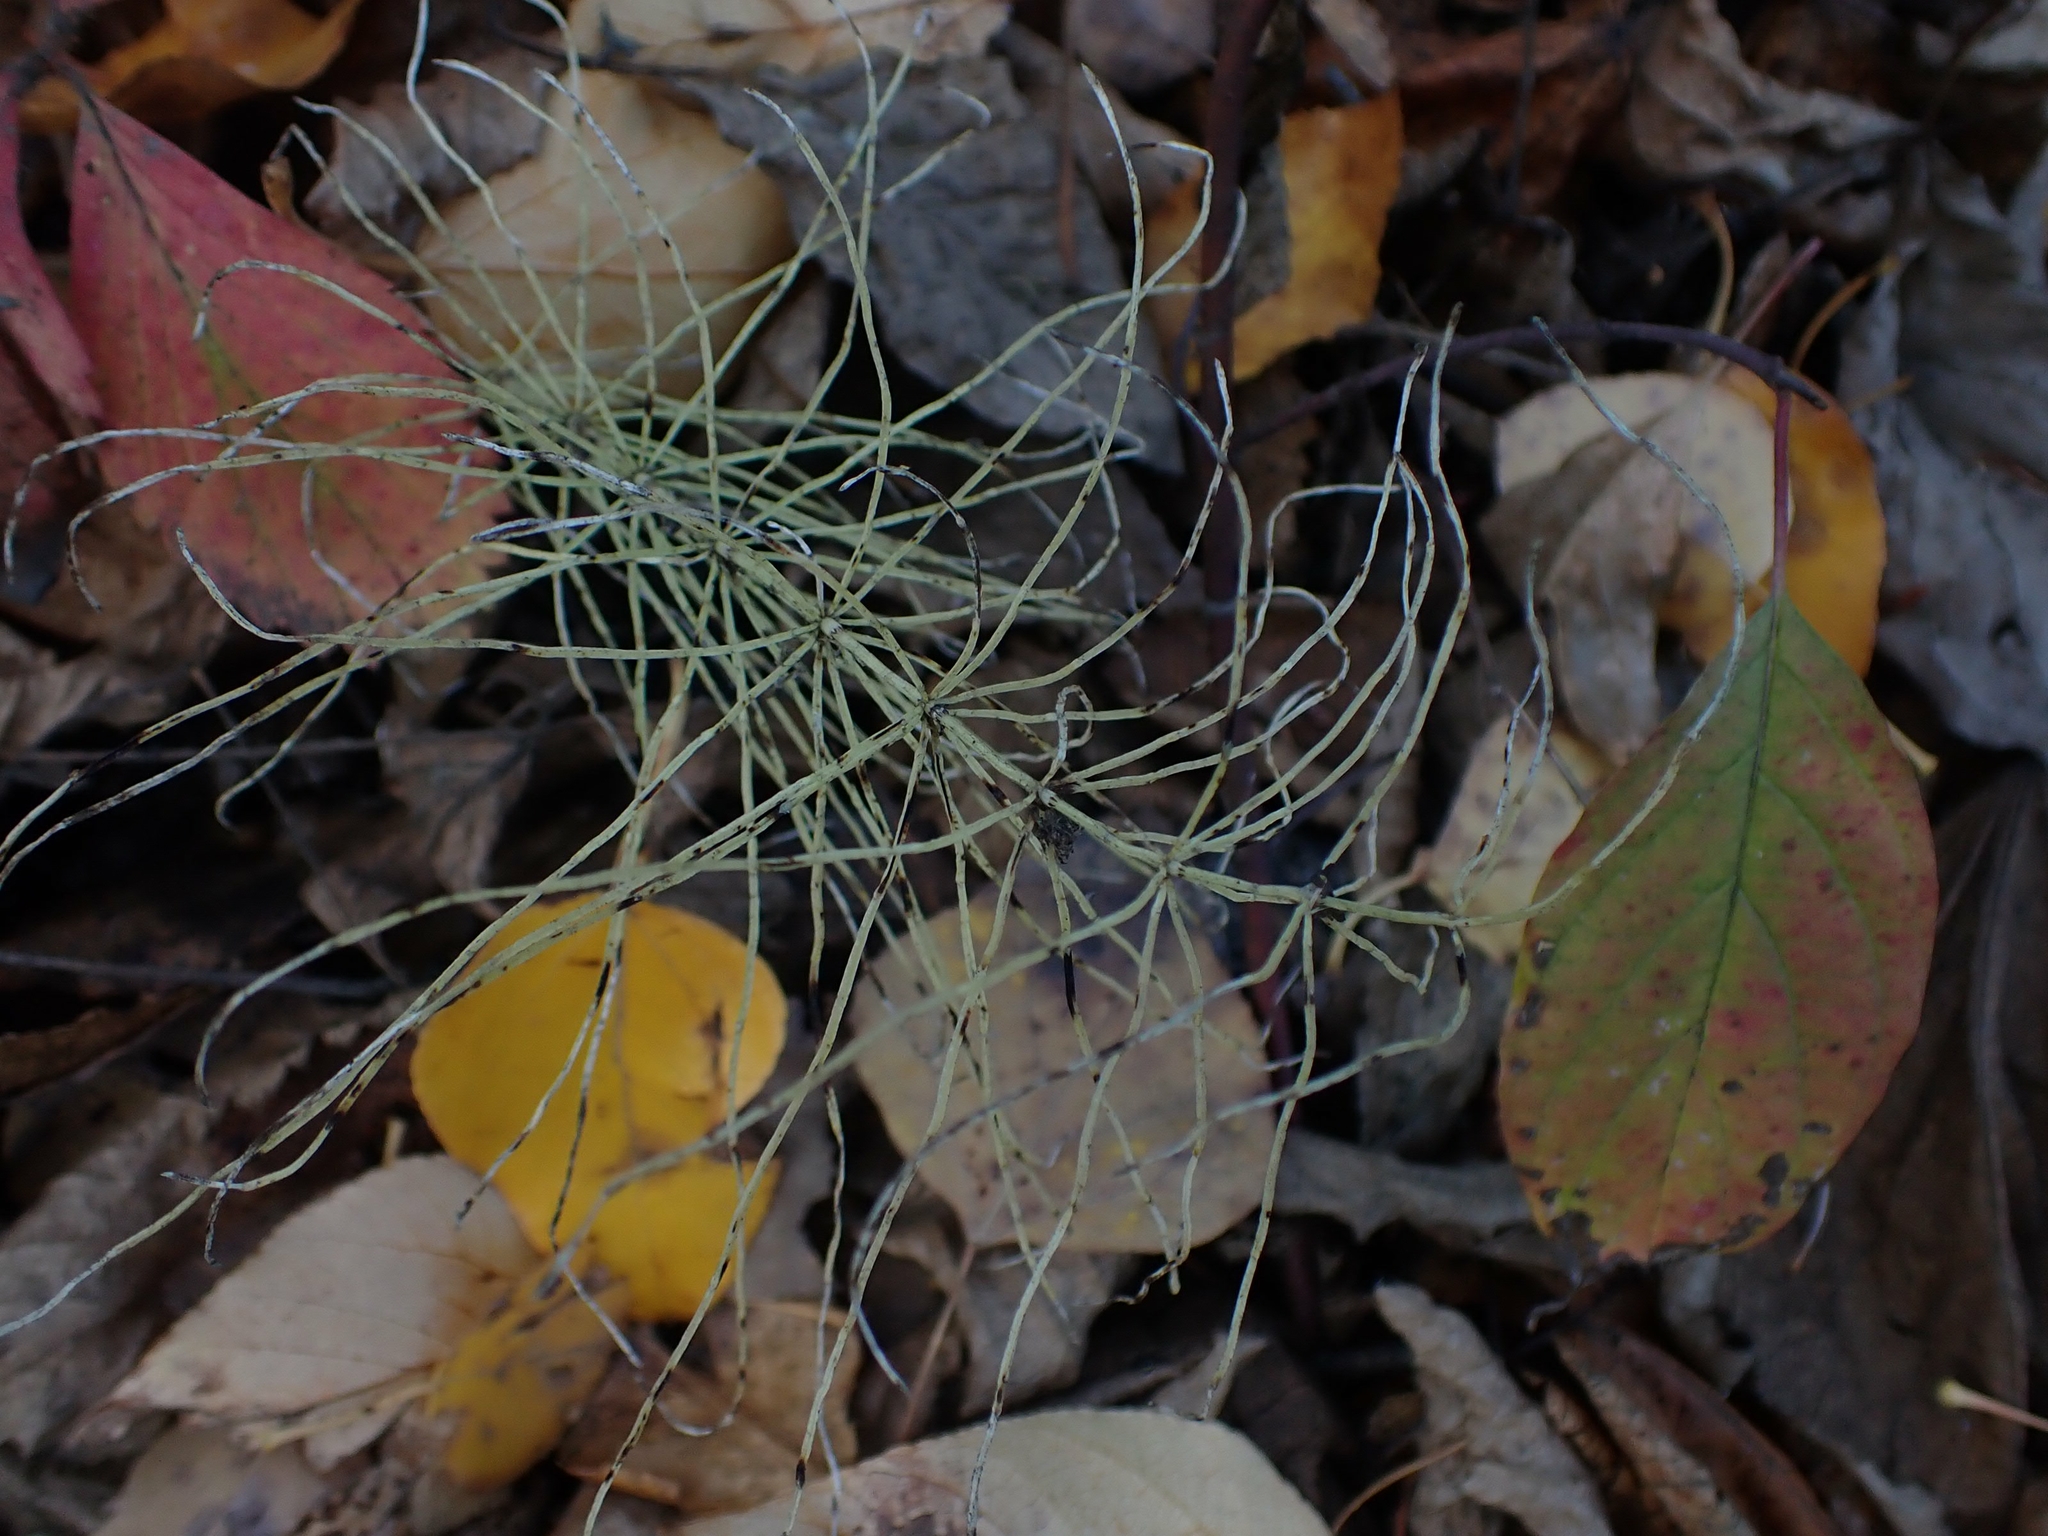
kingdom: Plantae
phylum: Tracheophyta
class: Polypodiopsida
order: Equisetales
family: Equisetaceae
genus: Equisetum
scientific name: Equisetum arvense
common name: Field horsetail
